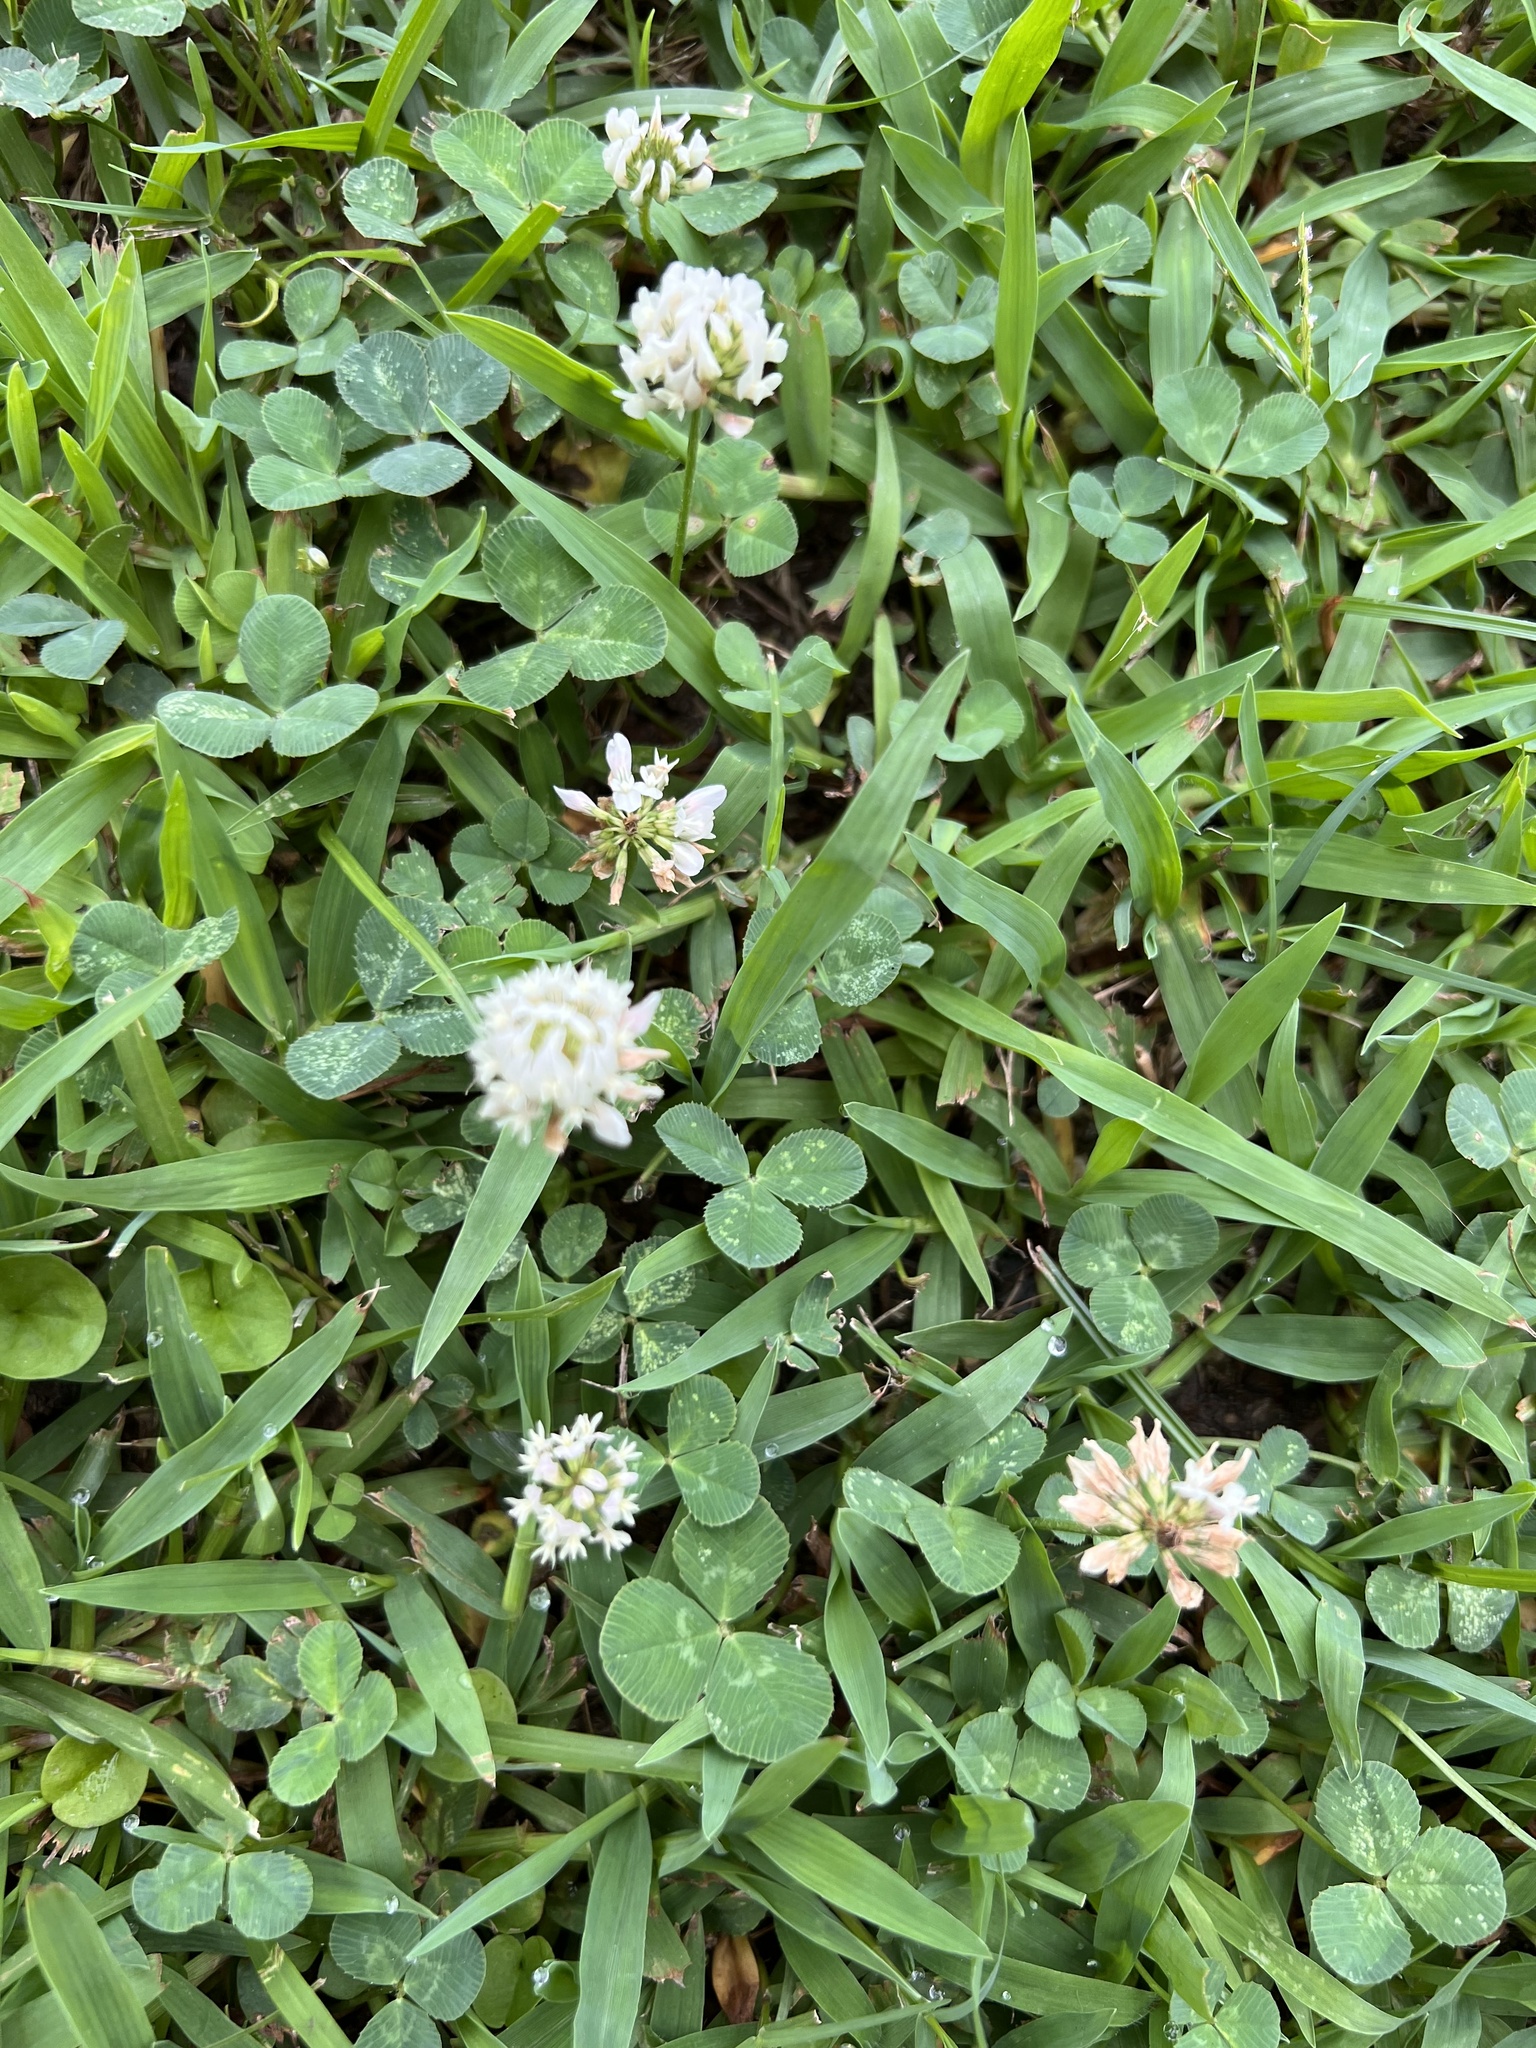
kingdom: Plantae
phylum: Tracheophyta
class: Magnoliopsida
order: Fabales
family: Fabaceae
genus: Trifolium
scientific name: Trifolium repens
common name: White clover
